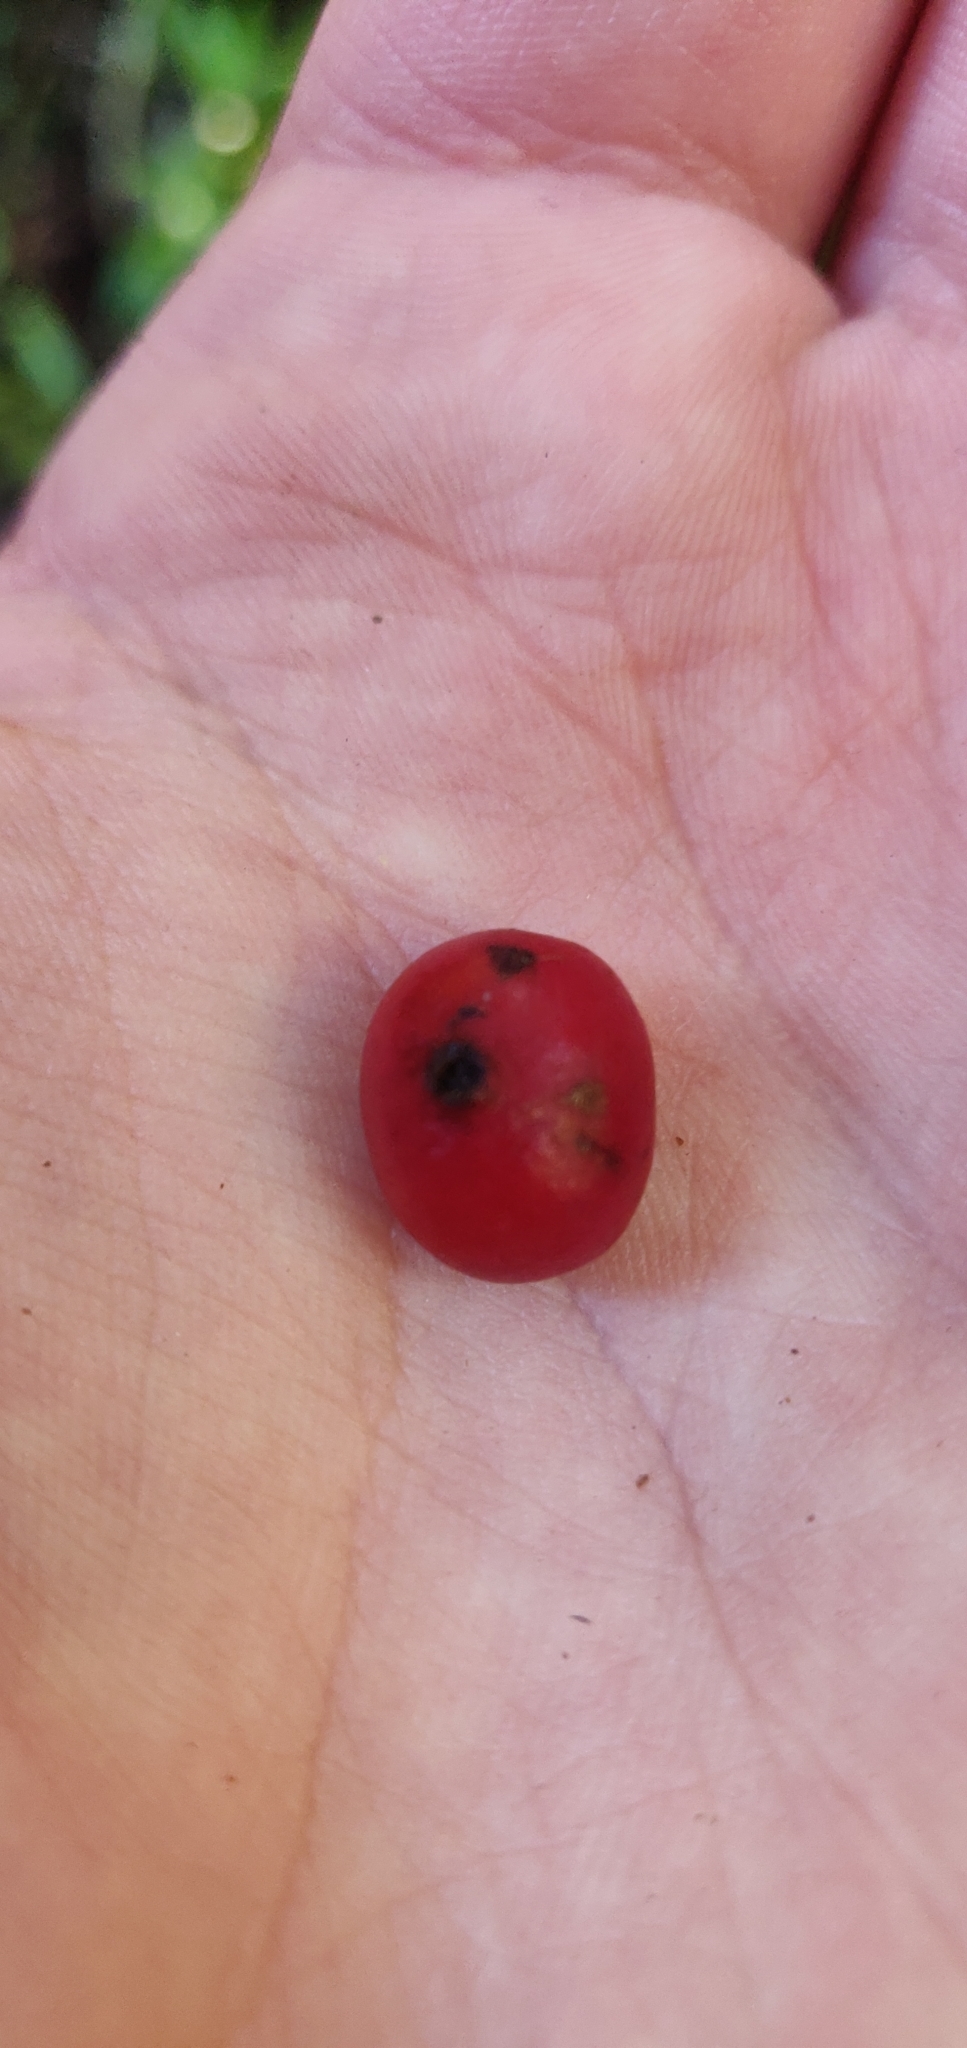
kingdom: Plantae
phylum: Tracheophyta
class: Liliopsida
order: Liliales
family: Ripogonaceae
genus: Ripogonum
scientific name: Ripogonum scandens
